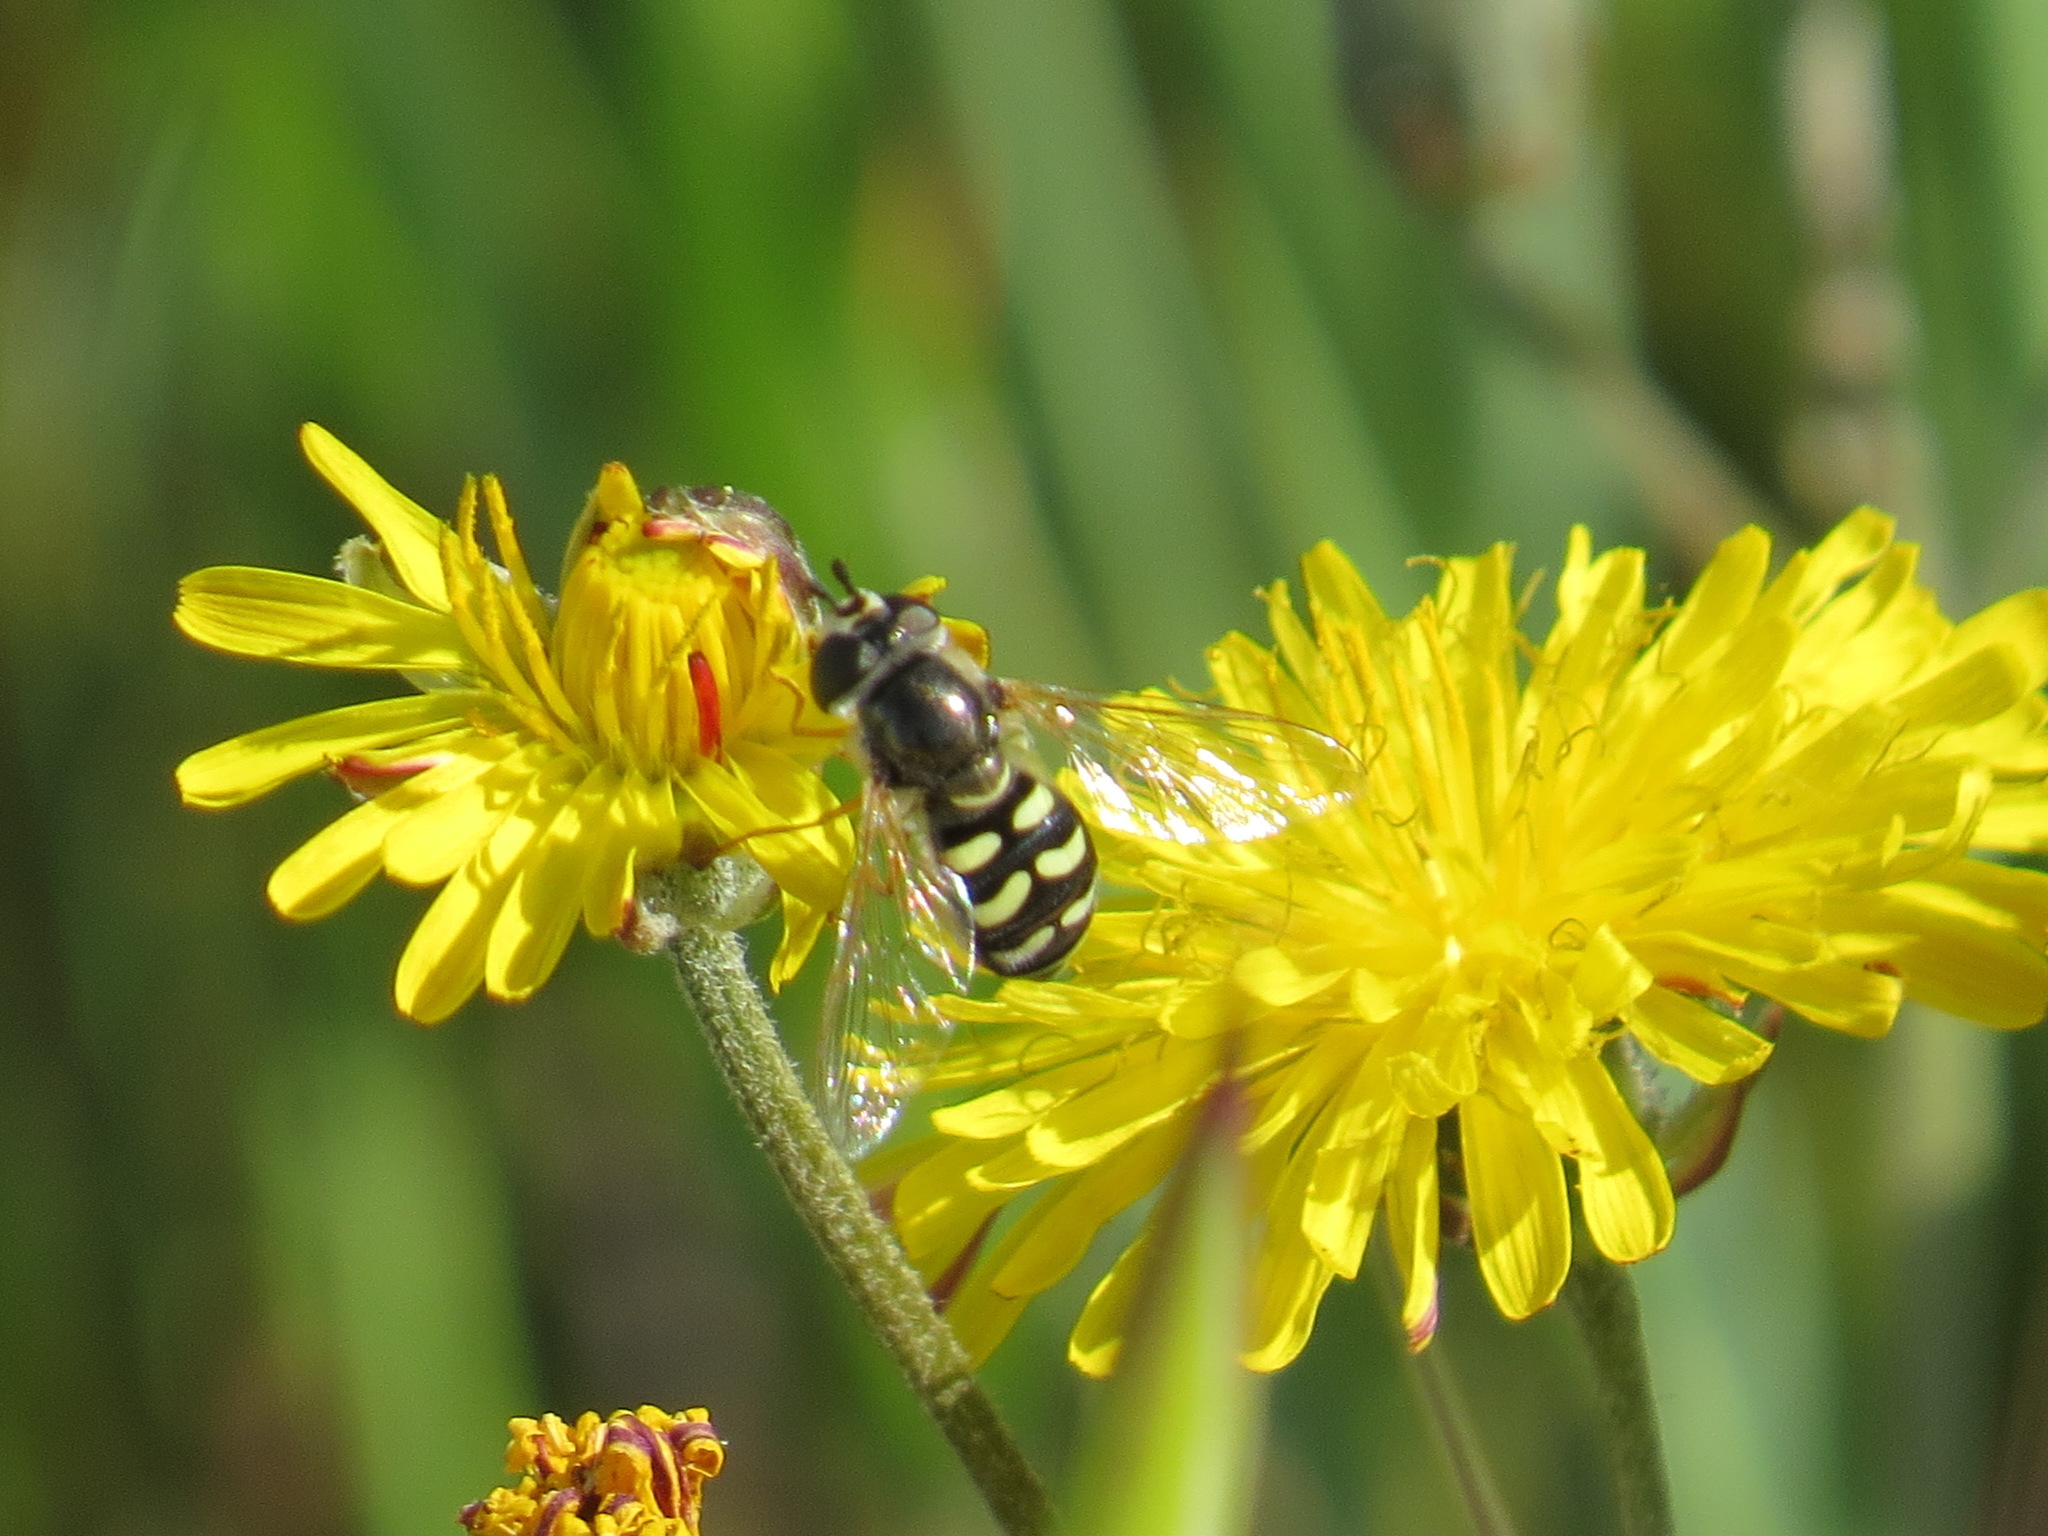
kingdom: Animalia
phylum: Arthropoda
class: Insecta
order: Diptera
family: Syrphidae
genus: Eupeodes
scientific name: Eupeodes volucris
